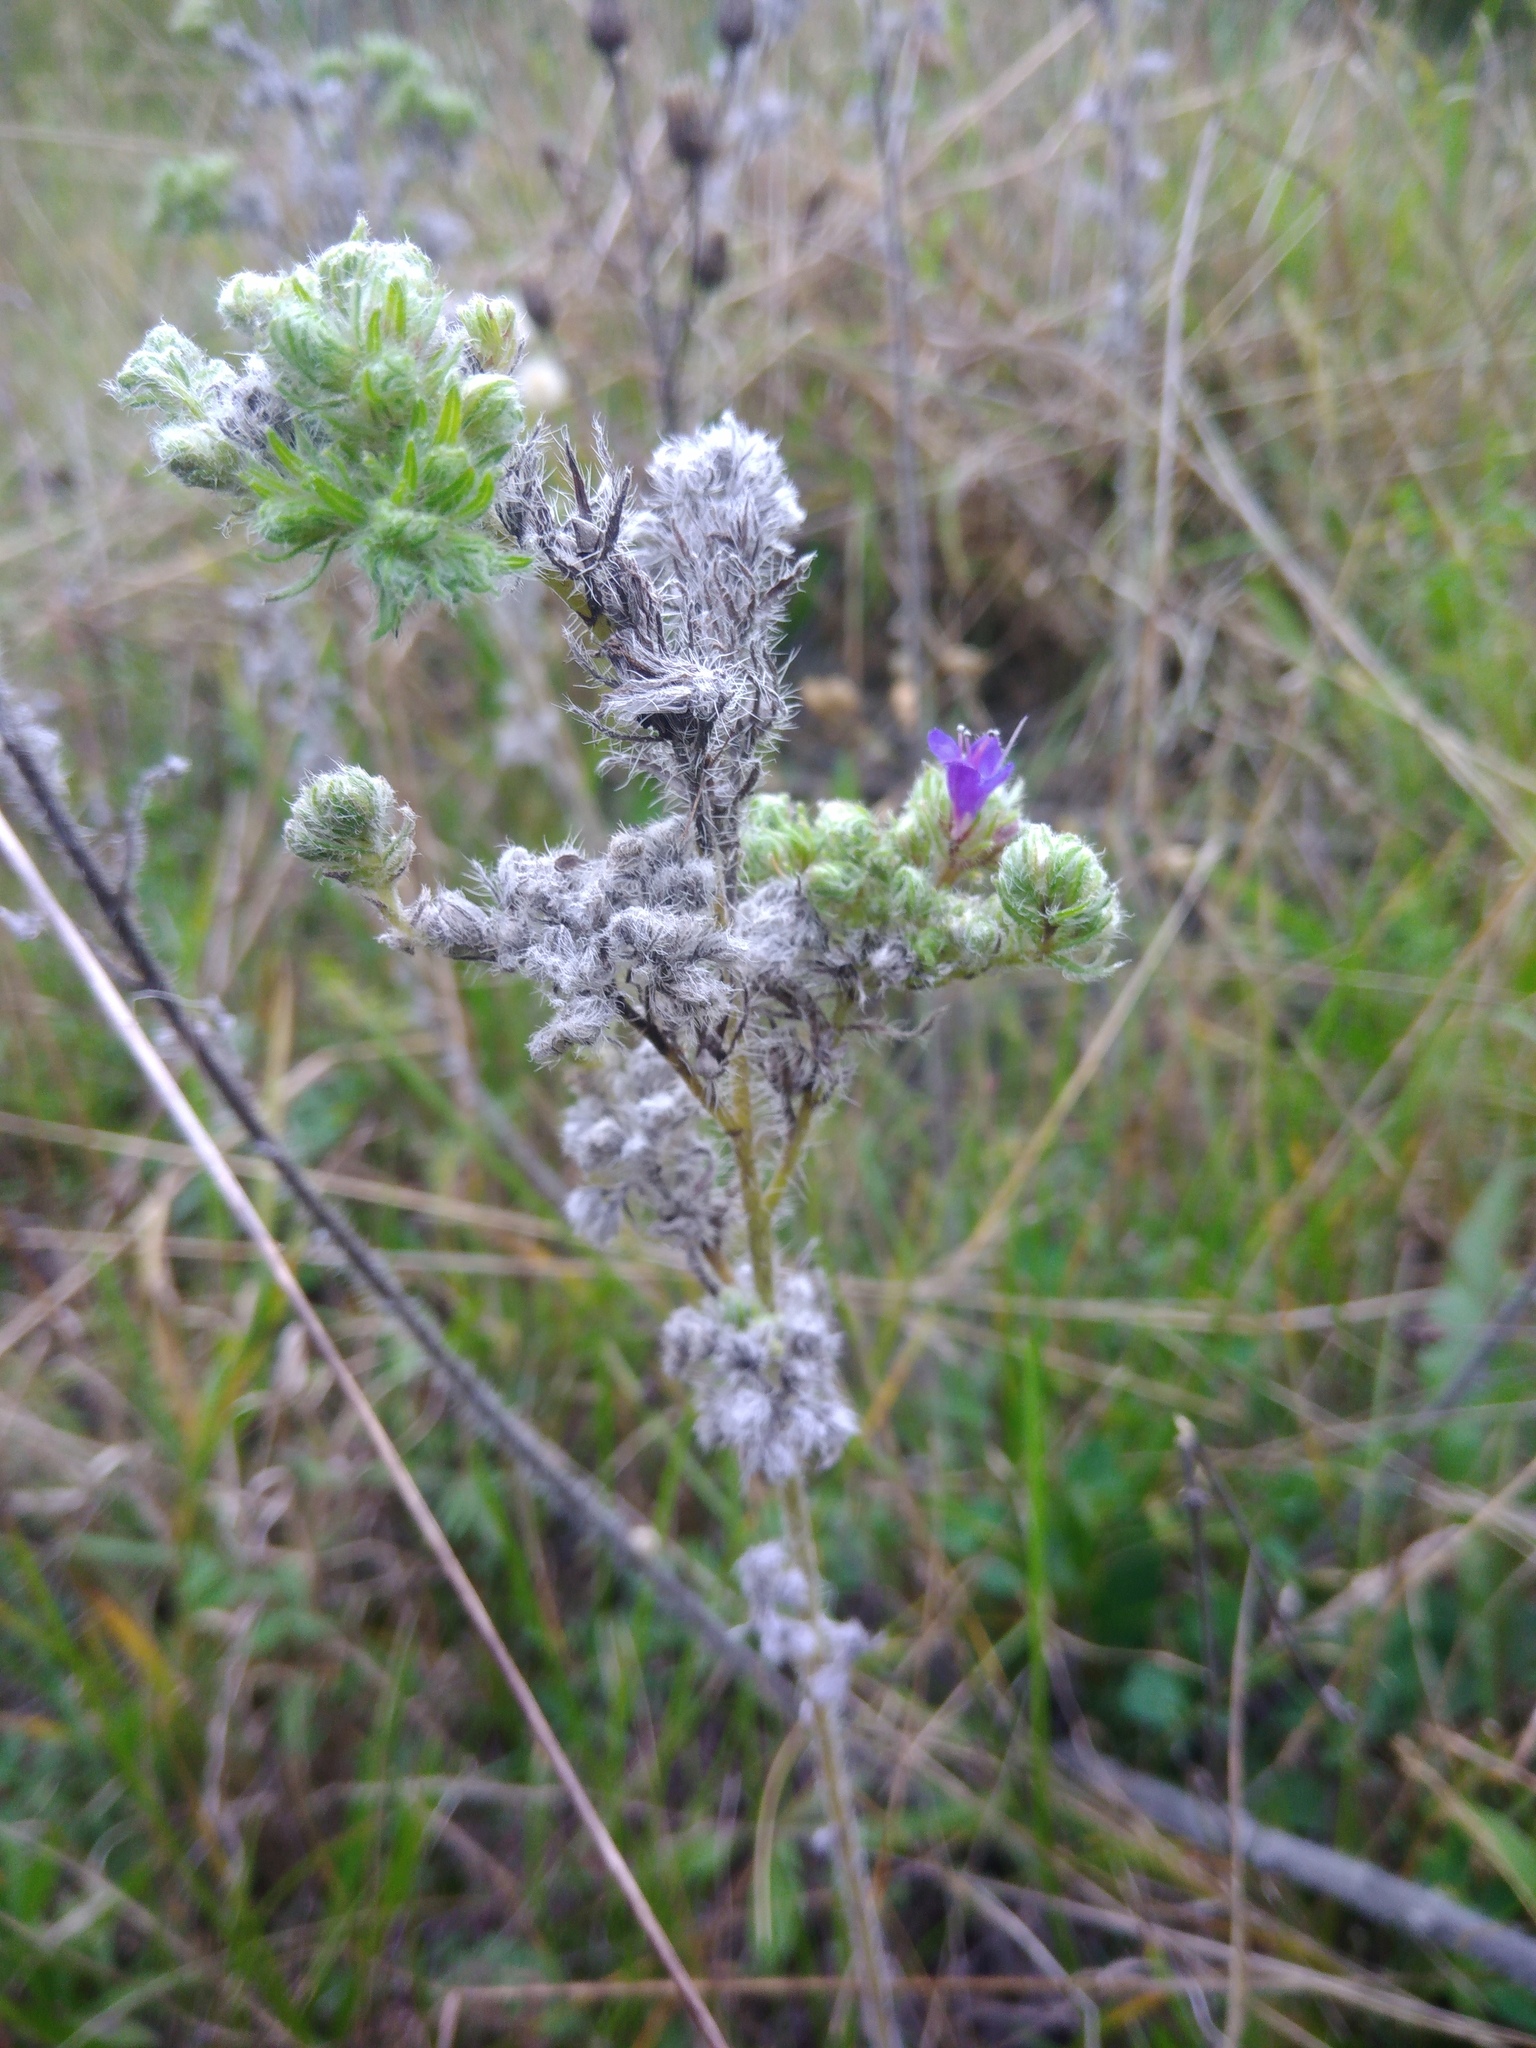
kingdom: Plantae
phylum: Tracheophyta
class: Magnoliopsida
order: Boraginales
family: Boraginaceae
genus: Echium
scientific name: Echium vulgare
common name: Common viper's bugloss
